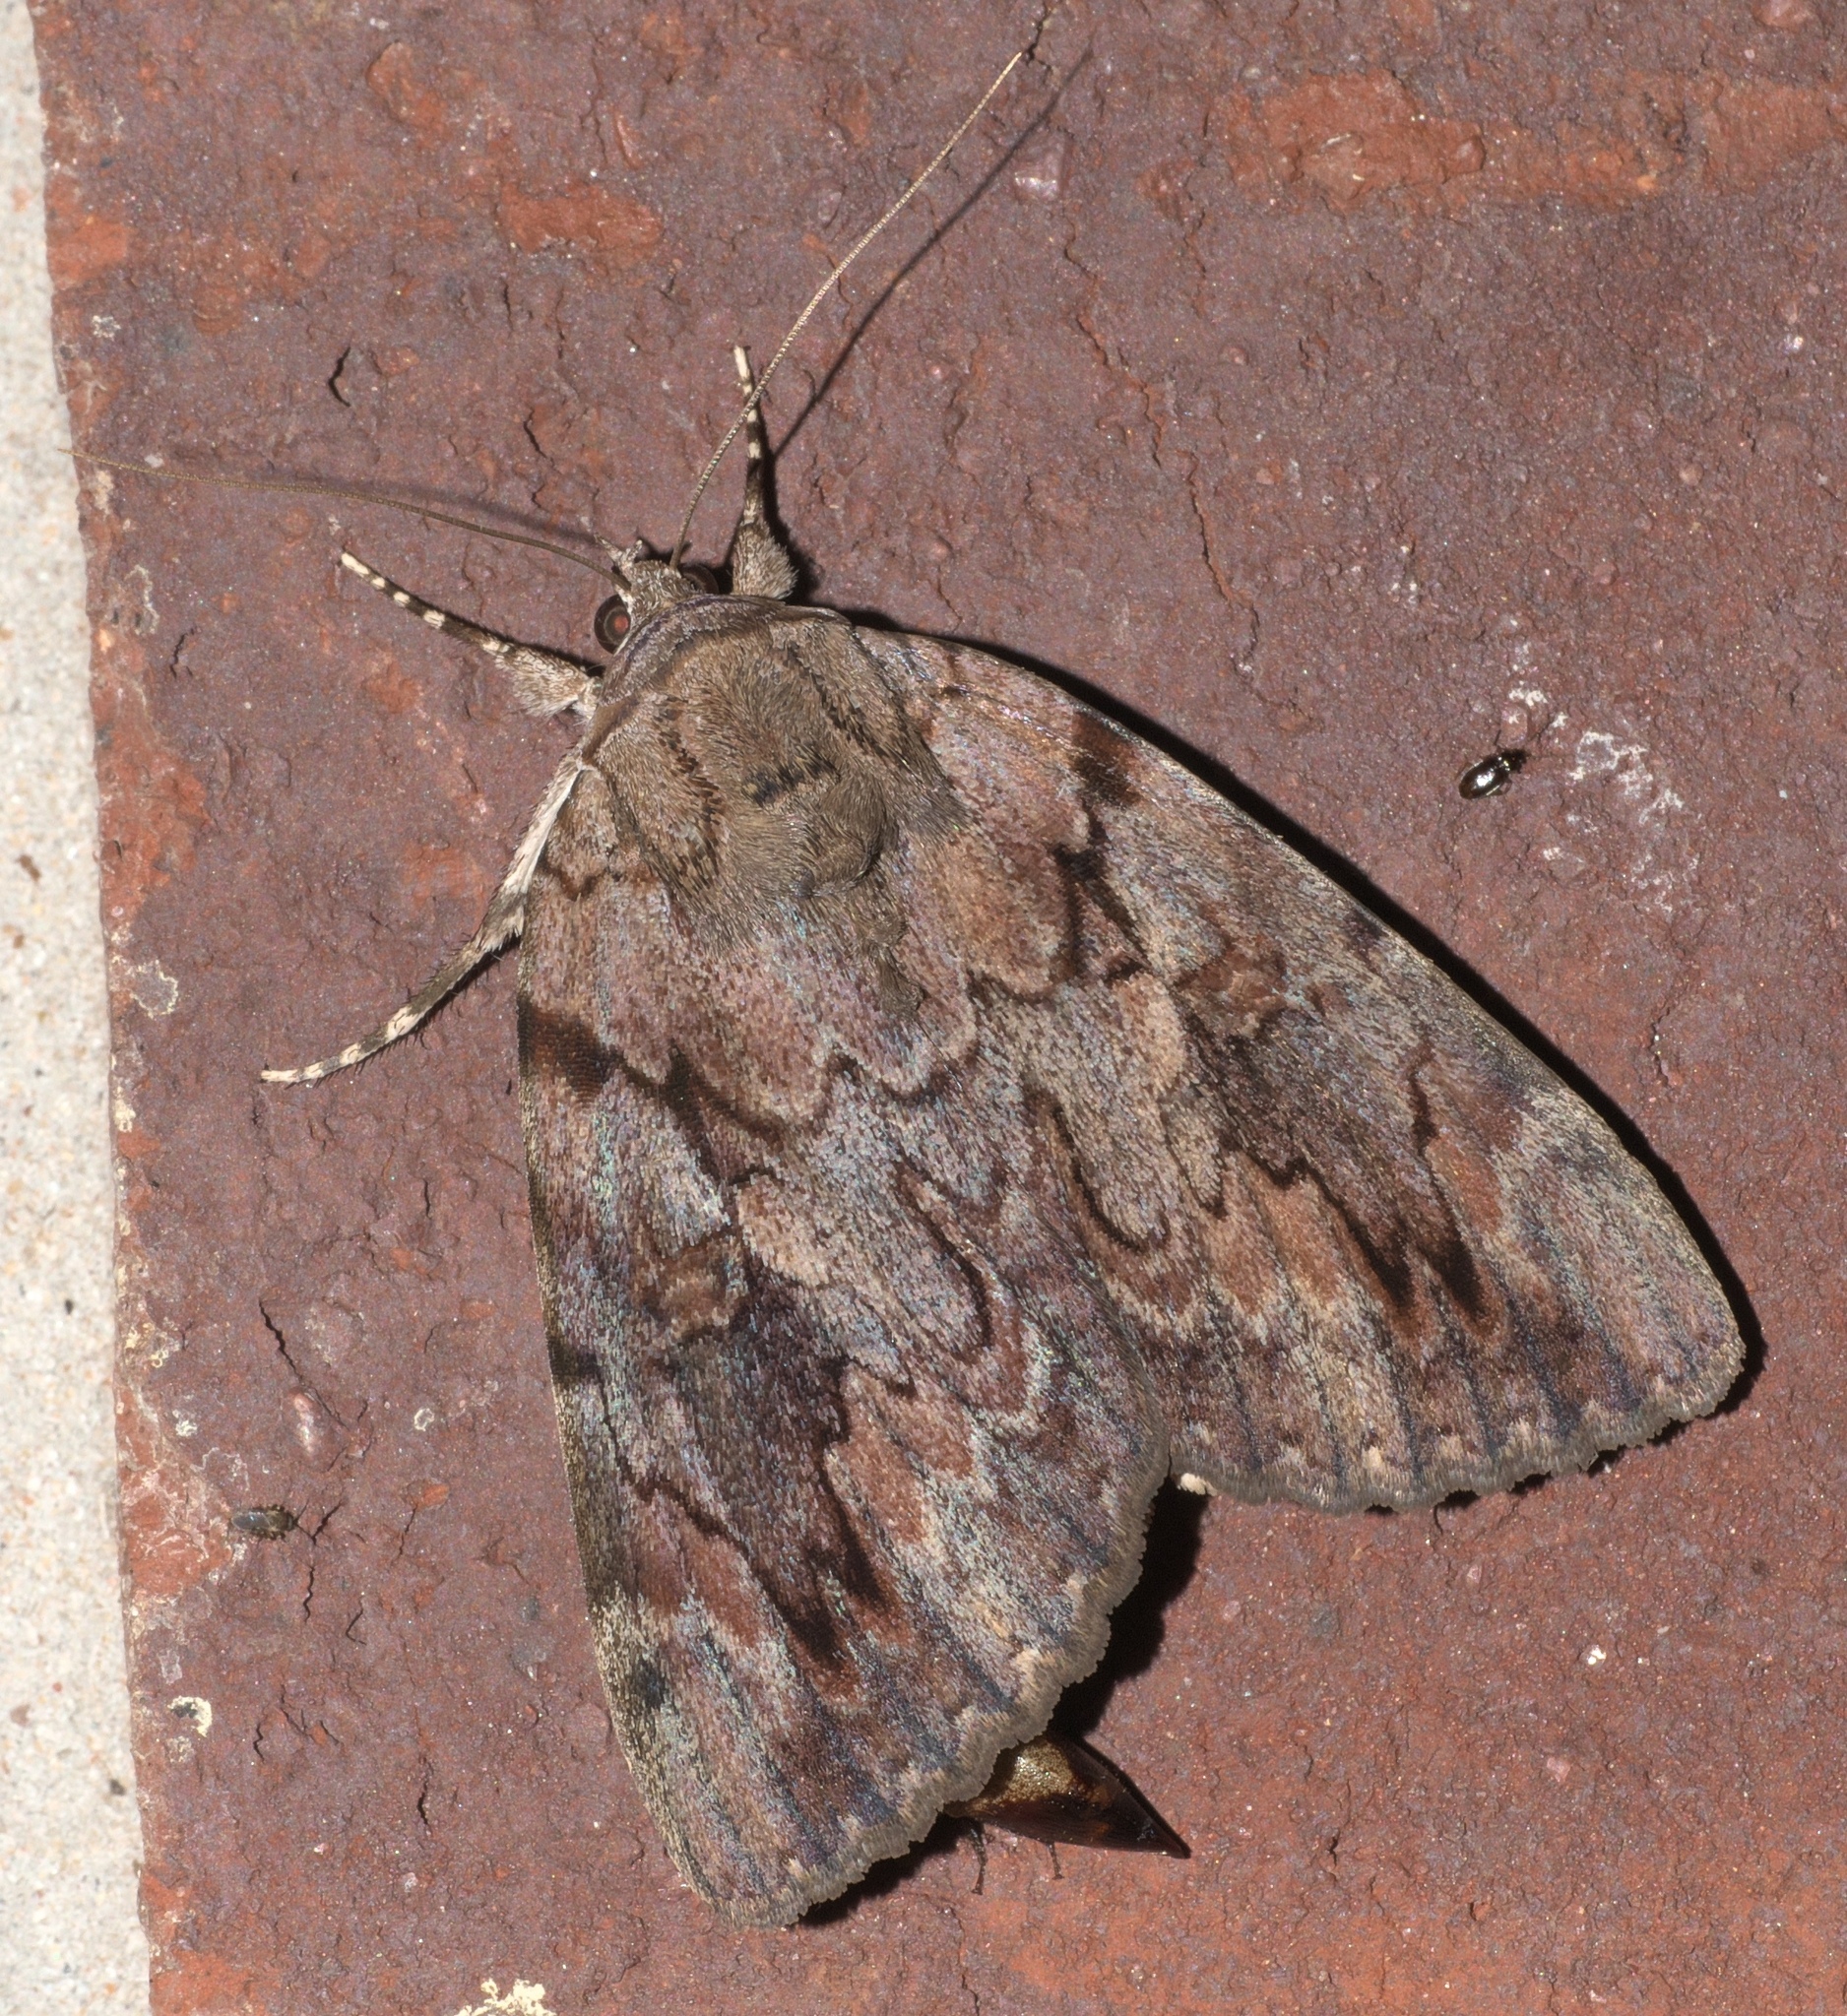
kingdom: Animalia
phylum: Arthropoda
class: Insecta
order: Lepidoptera
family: Erebidae
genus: Catocala
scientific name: Catocala agrippina
